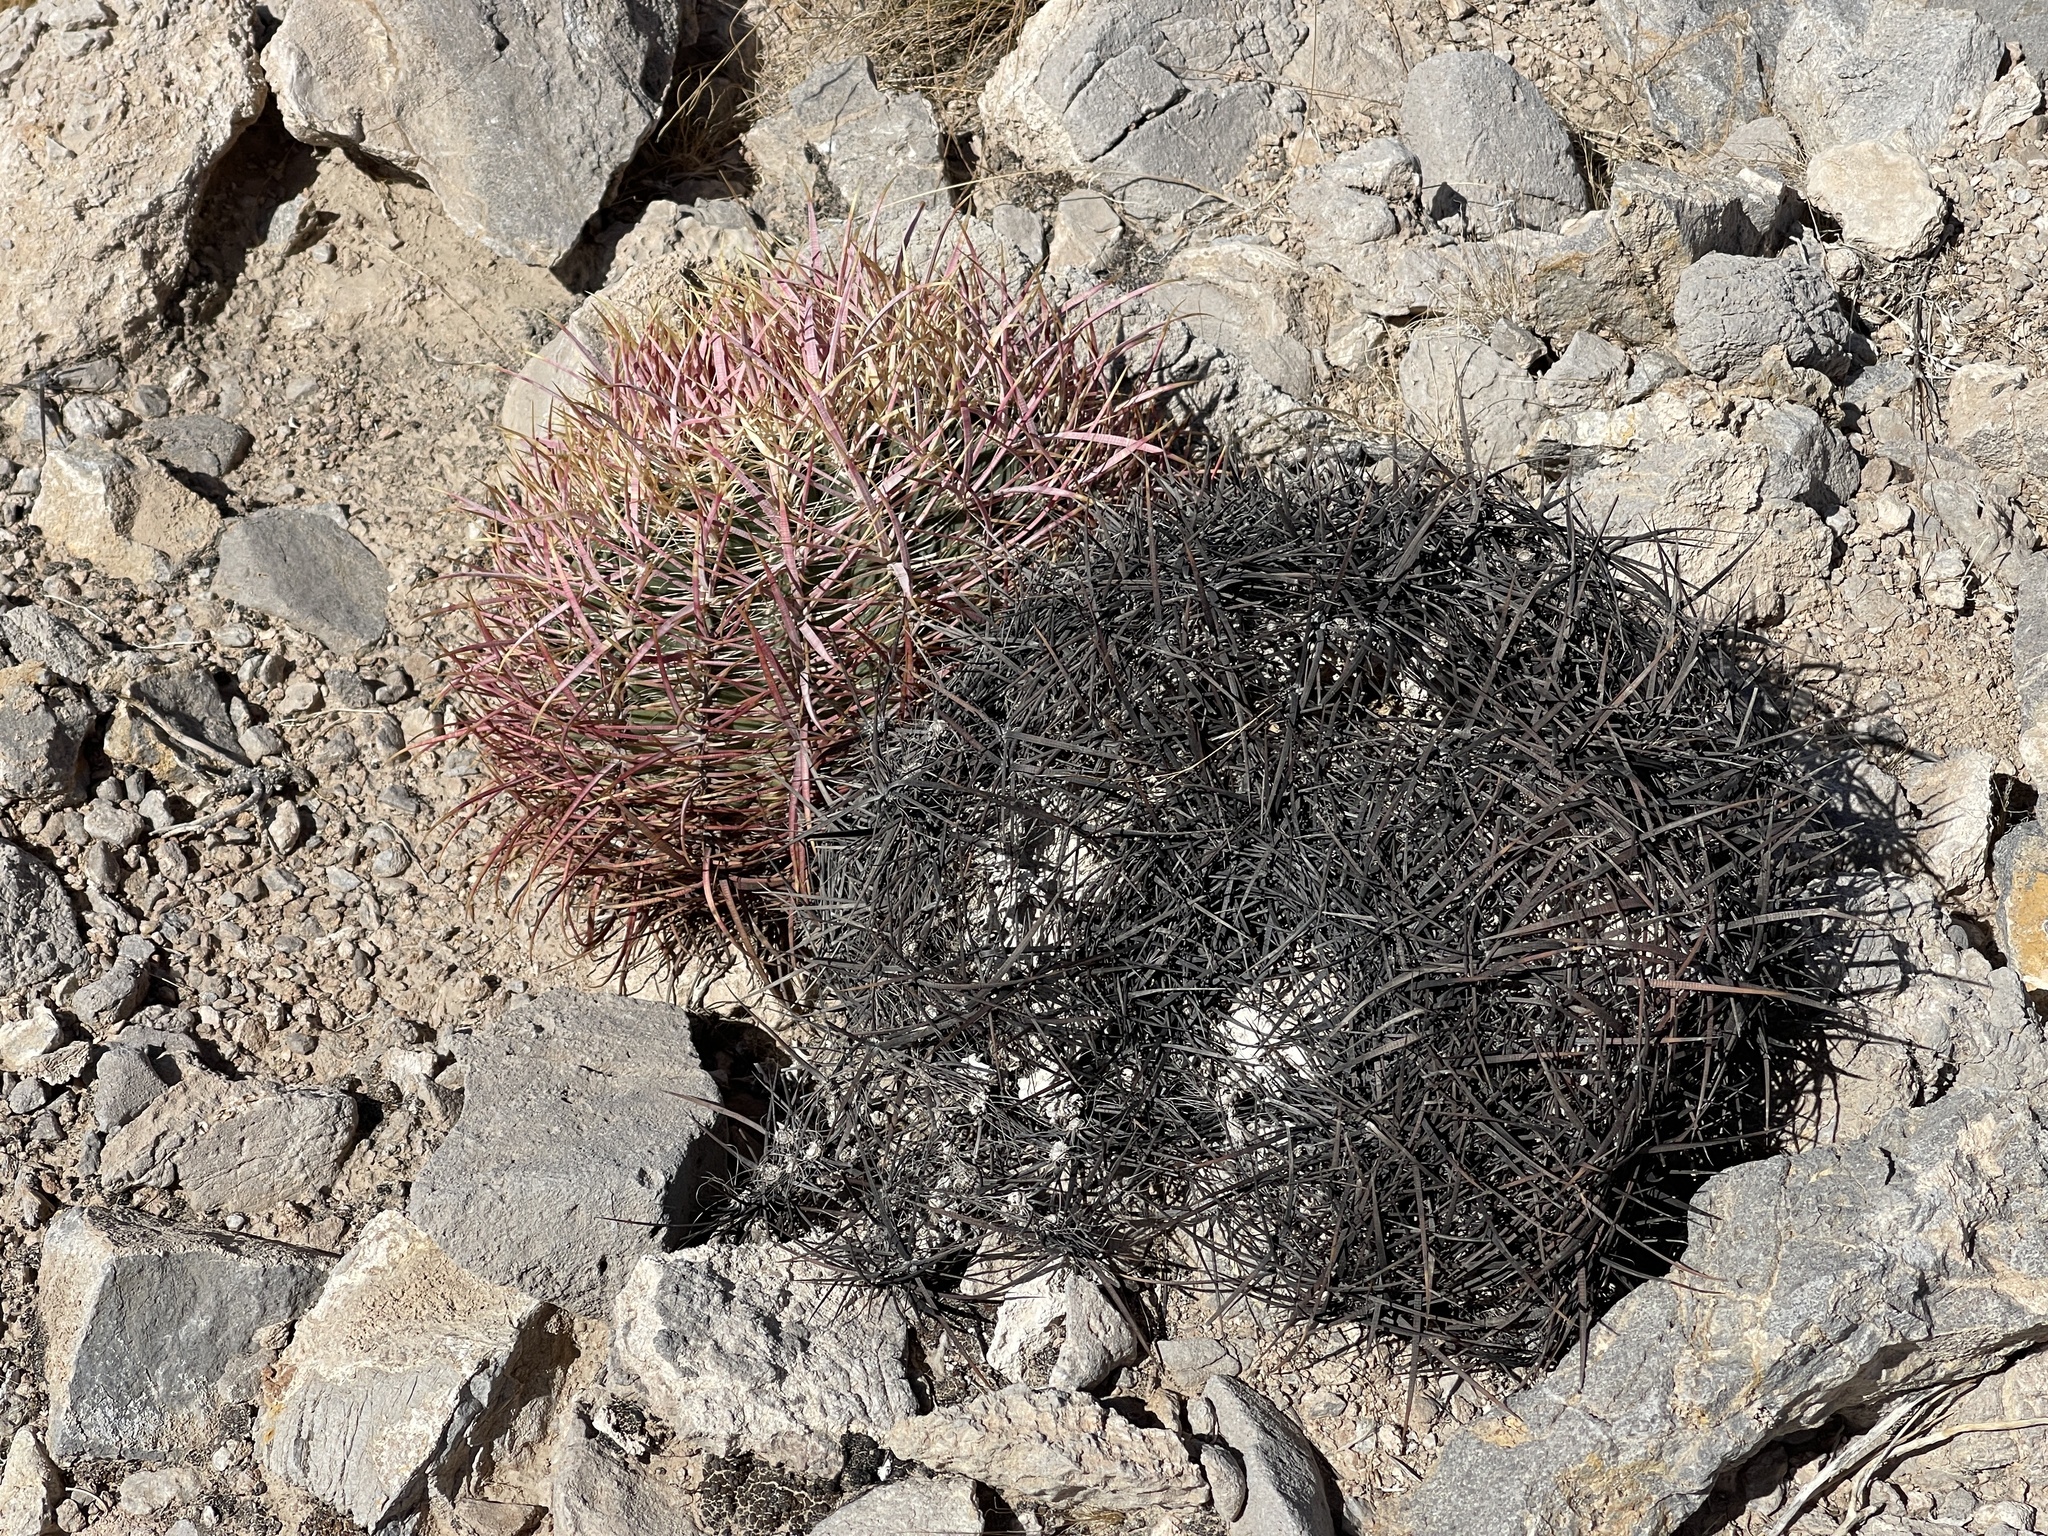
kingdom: Plantae
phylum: Tracheophyta
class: Magnoliopsida
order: Caryophyllales
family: Cactaceae
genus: Ferocactus
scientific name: Ferocactus cylindraceus
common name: California barrel cactus
